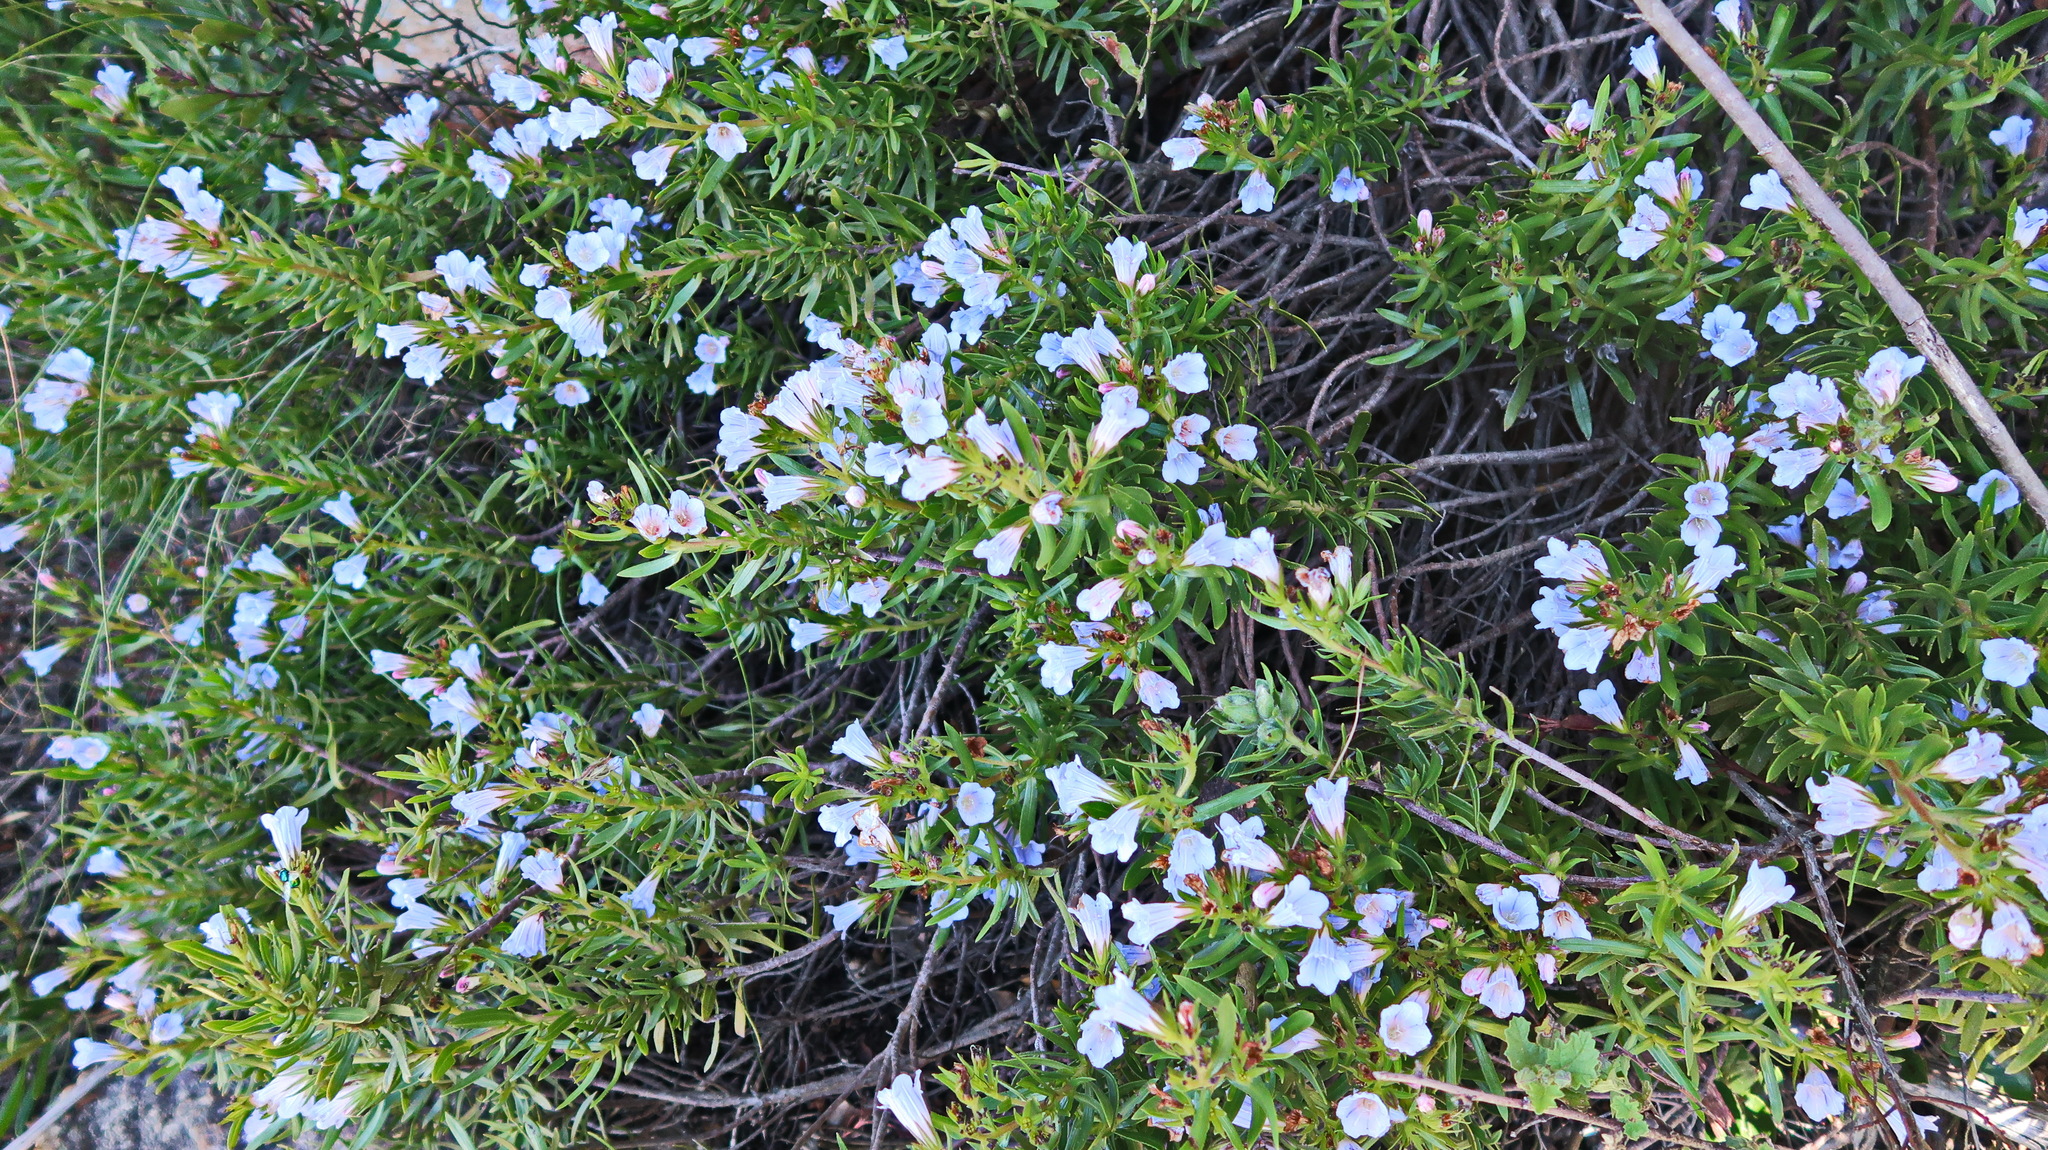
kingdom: Plantae
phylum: Tracheophyta
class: Magnoliopsida
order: Boraginales
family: Boraginaceae
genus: Lobostemon
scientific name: Lobostemon fruticosus
